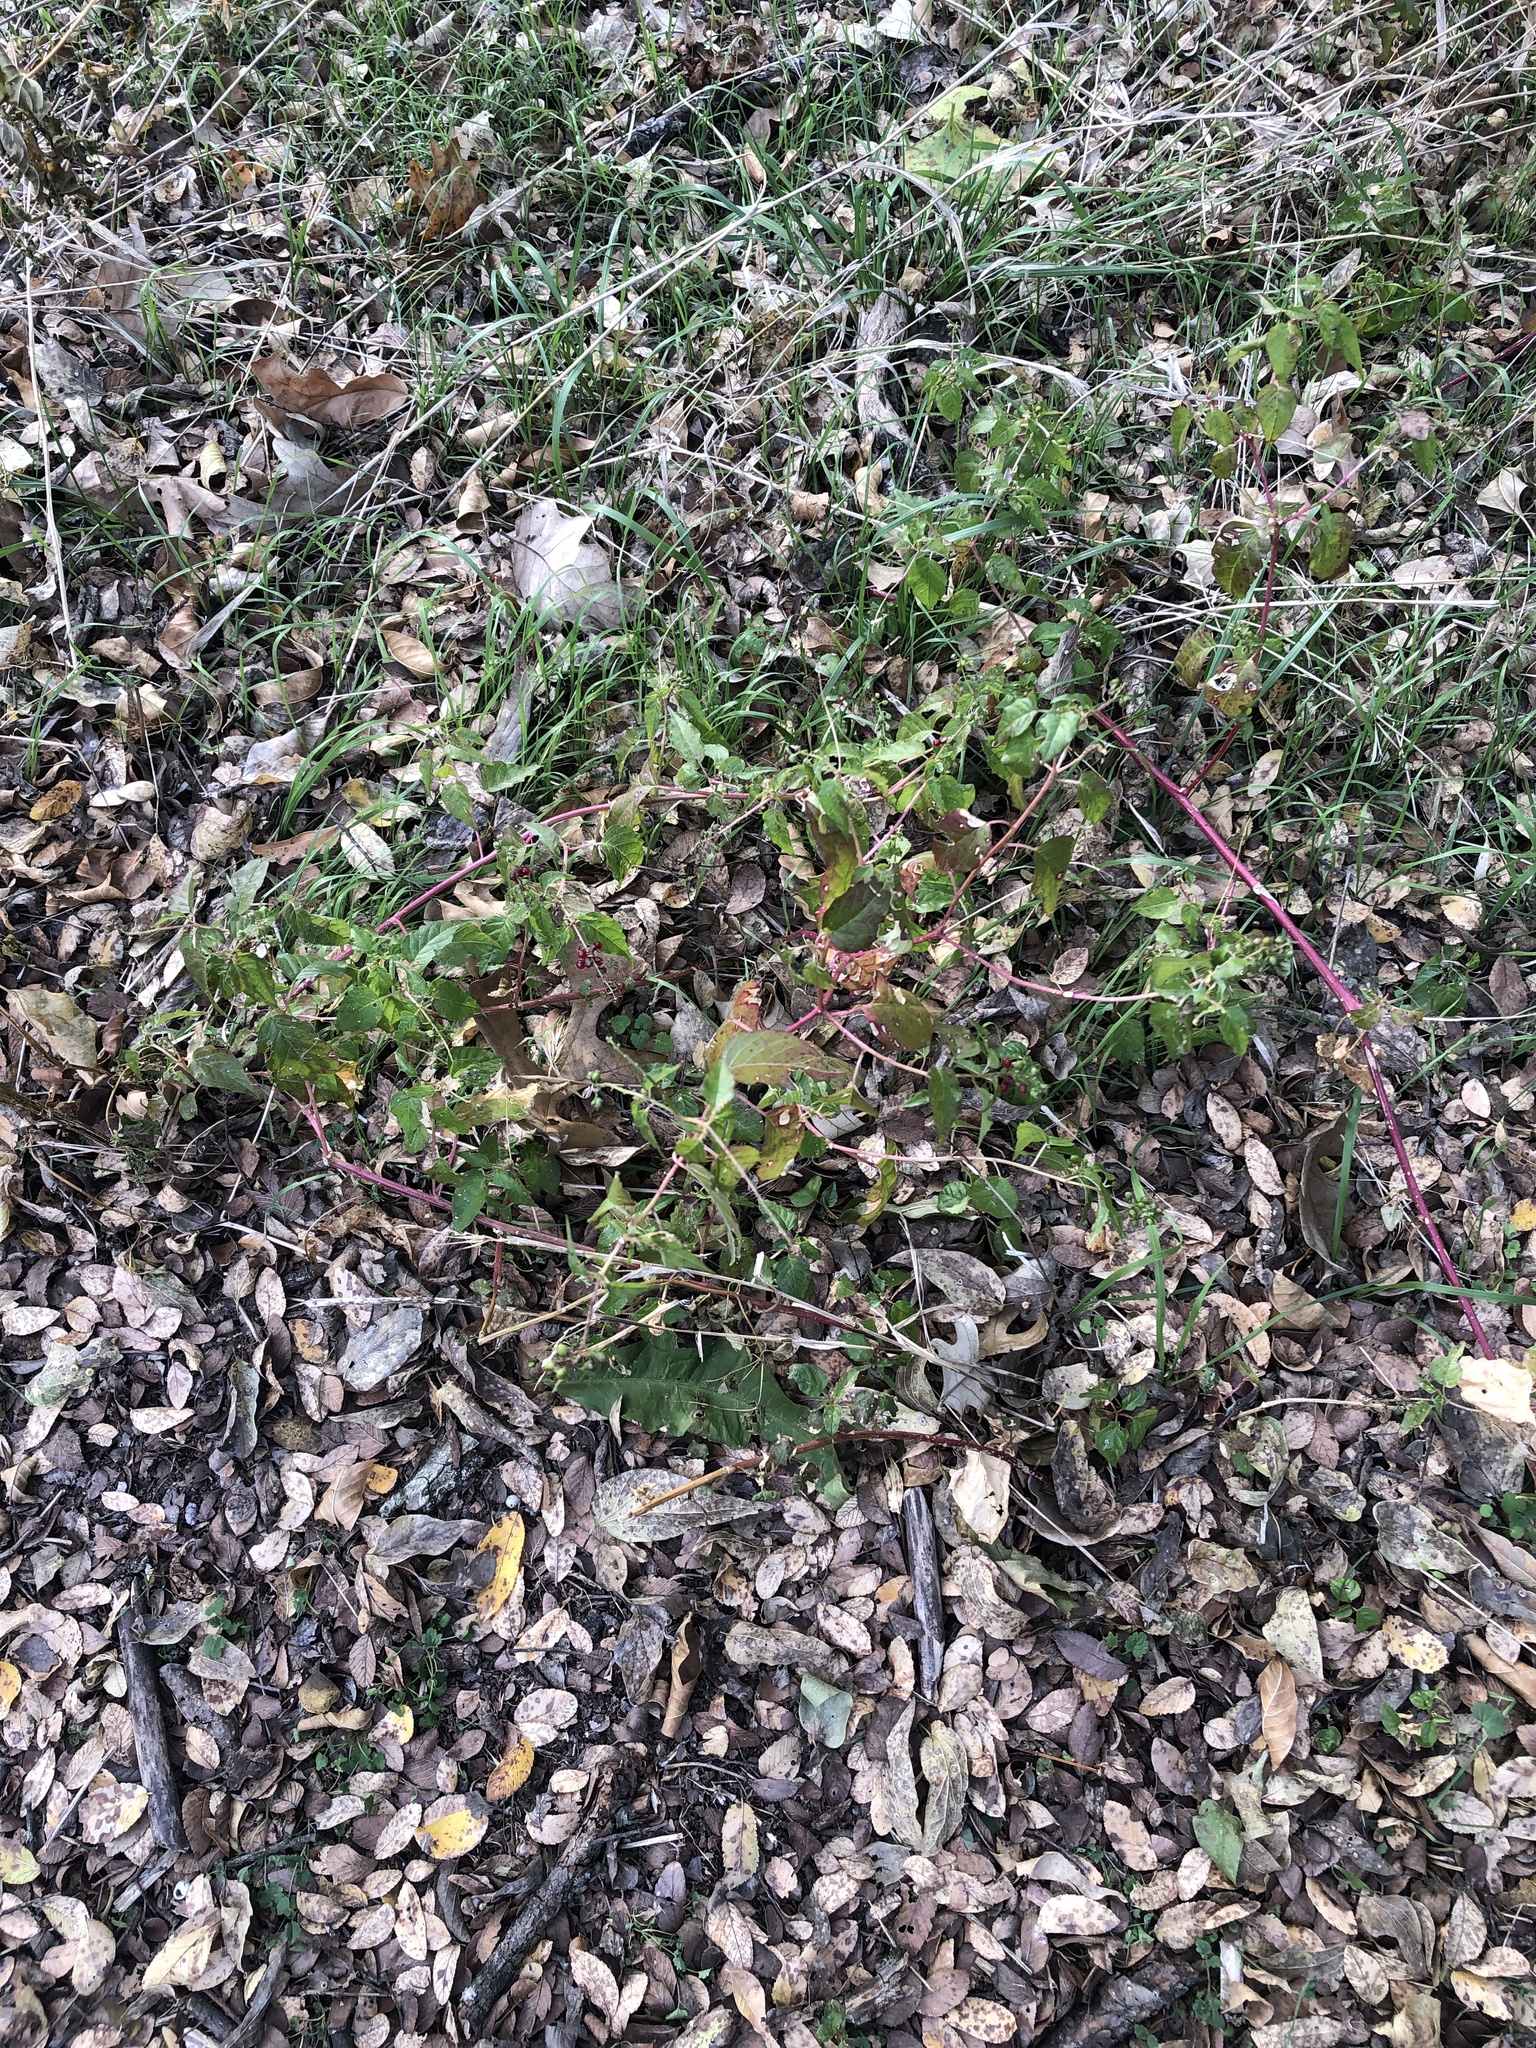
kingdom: Plantae
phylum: Tracheophyta
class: Magnoliopsida
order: Caryophyllales
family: Phytolaccaceae
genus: Rivina
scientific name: Rivina humilis
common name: Rougeplant
